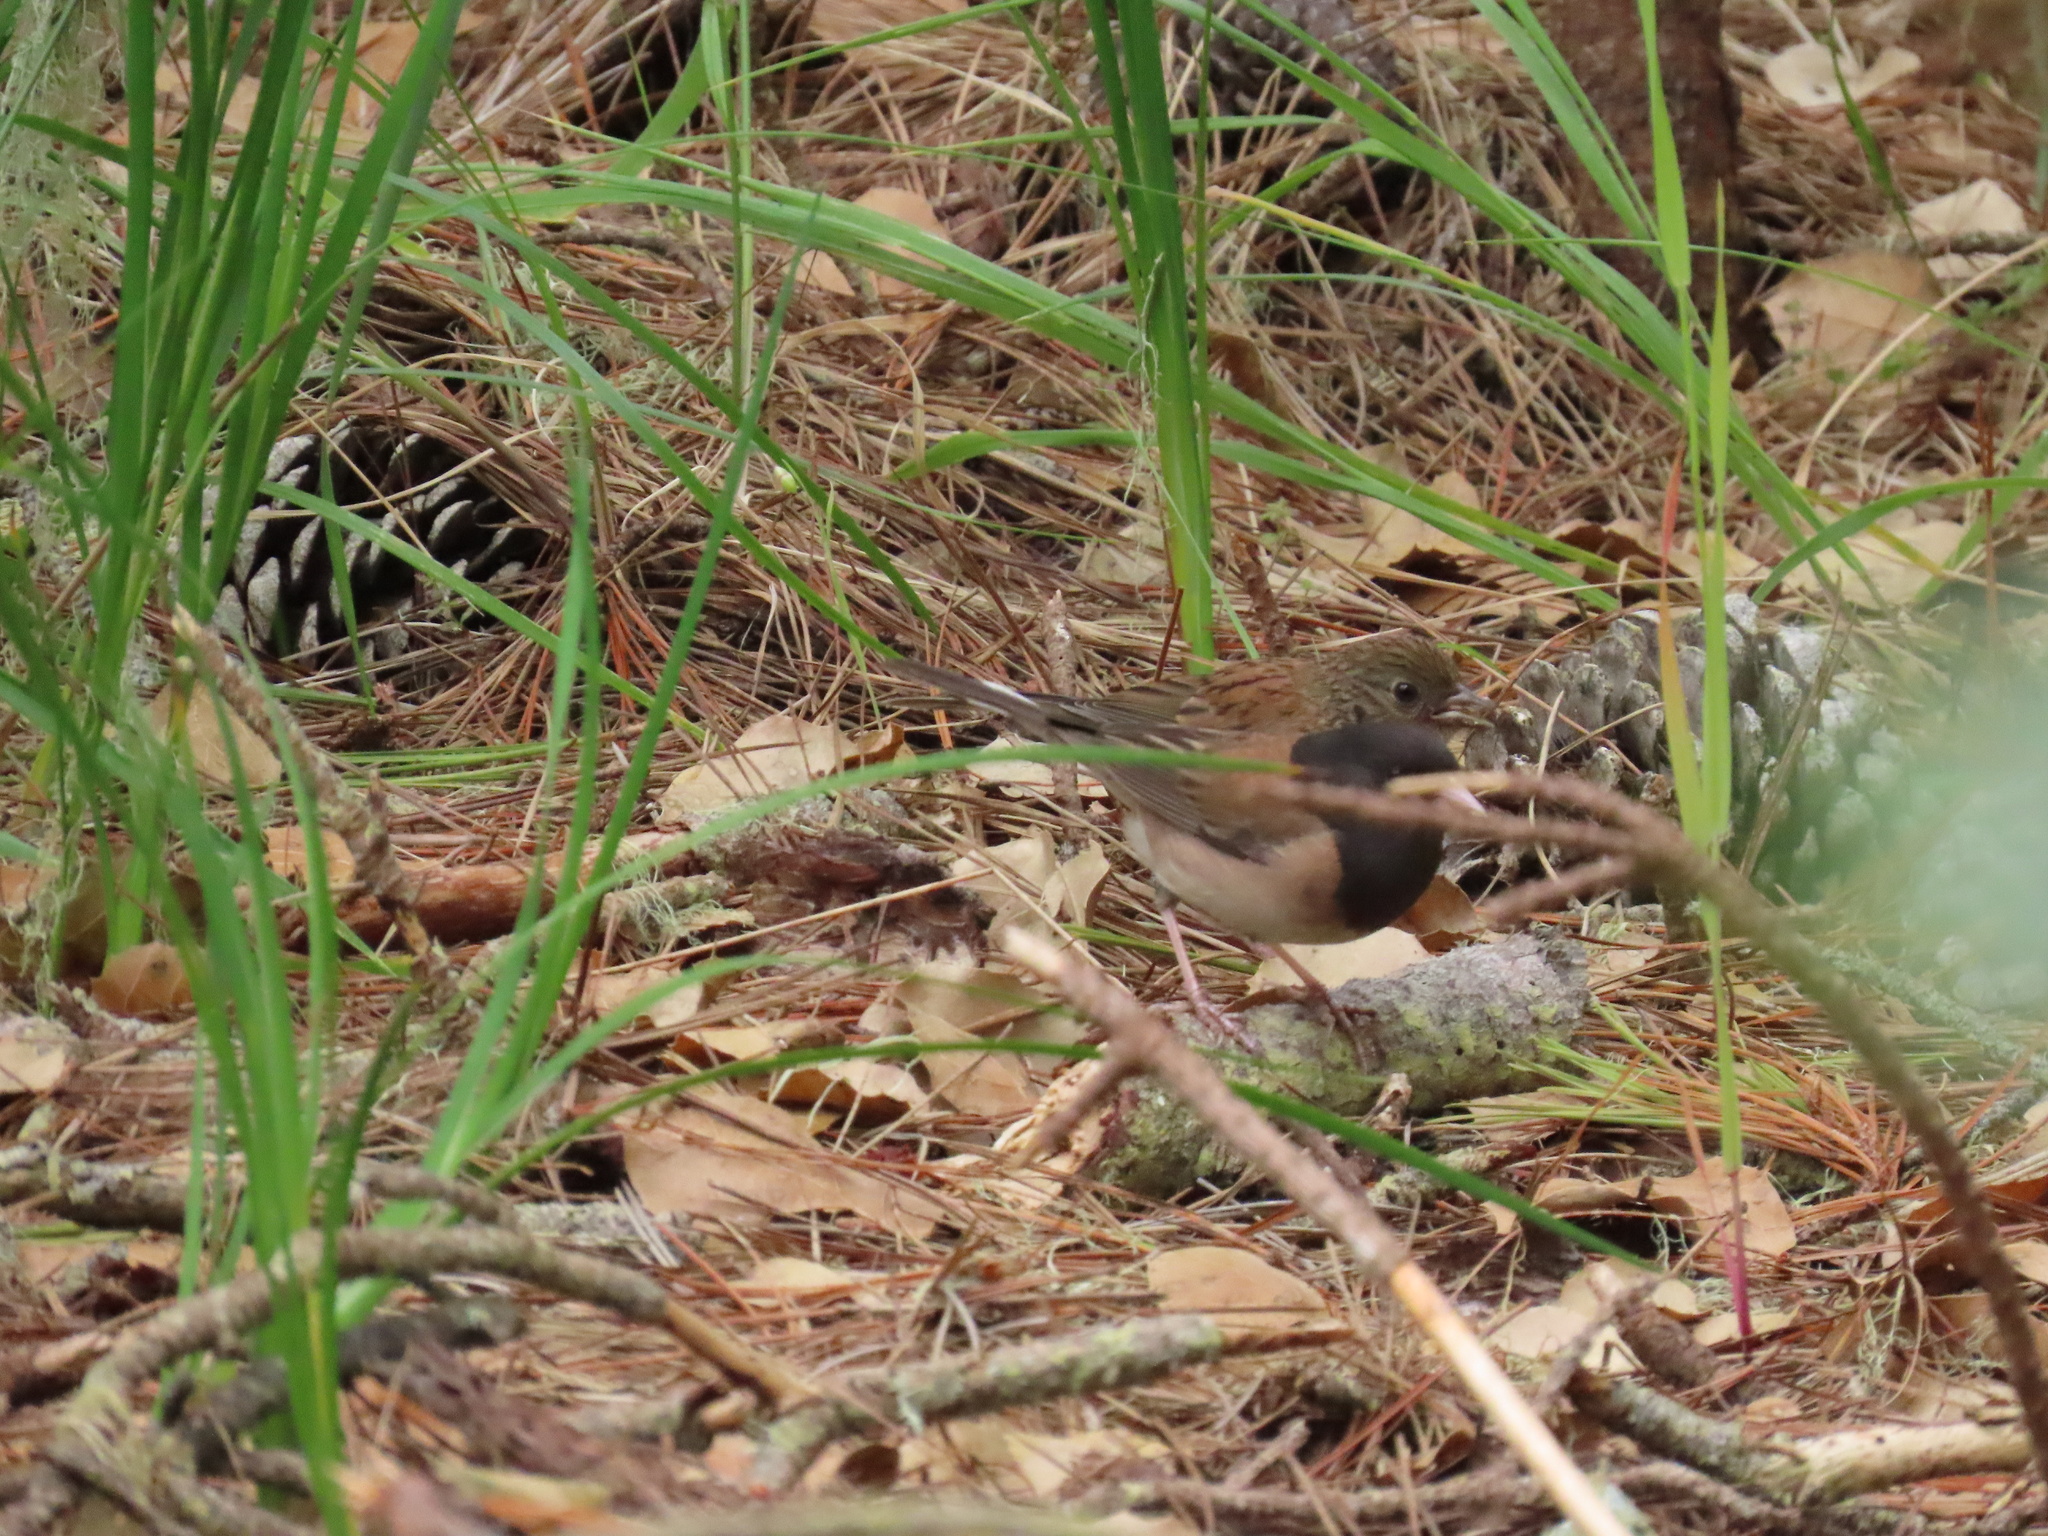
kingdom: Animalia
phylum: Chordata
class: Aves
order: Passeriformes
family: Passerellidae
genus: Junco
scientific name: Junco hyemalis
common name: Dark-eyed junco
